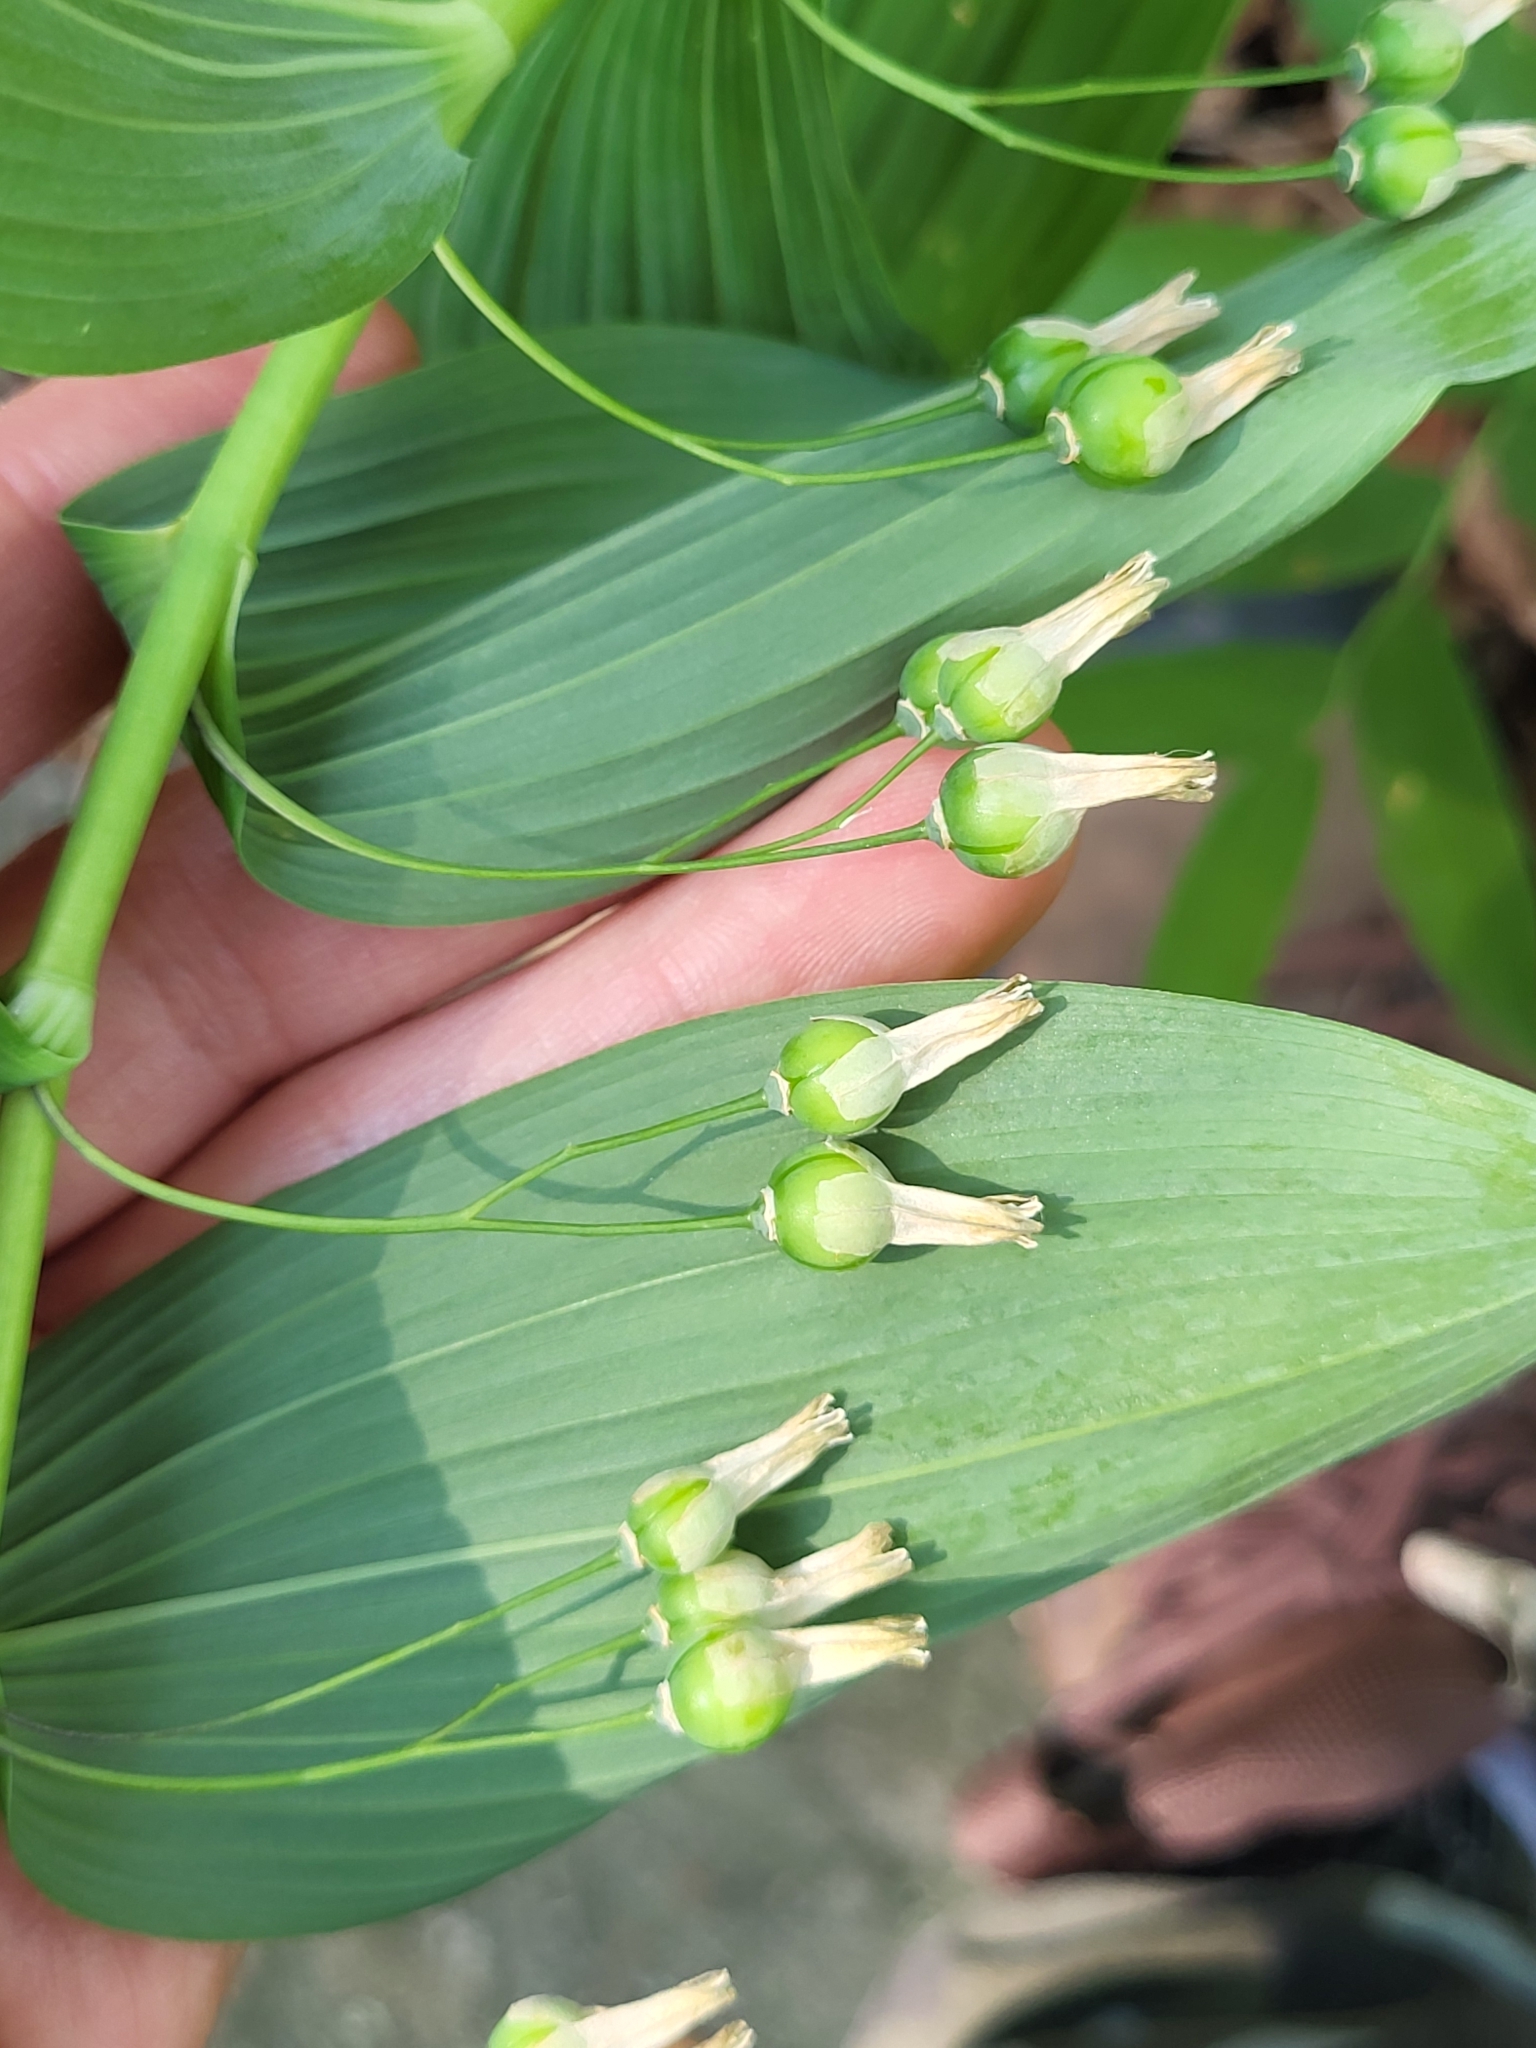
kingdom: Plantae
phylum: Tracheophyta
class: Liliopsida
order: Asparagales
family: Asparagaceae
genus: Polygonatum
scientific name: Polygonatum biflorum
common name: American solomon's-seal
